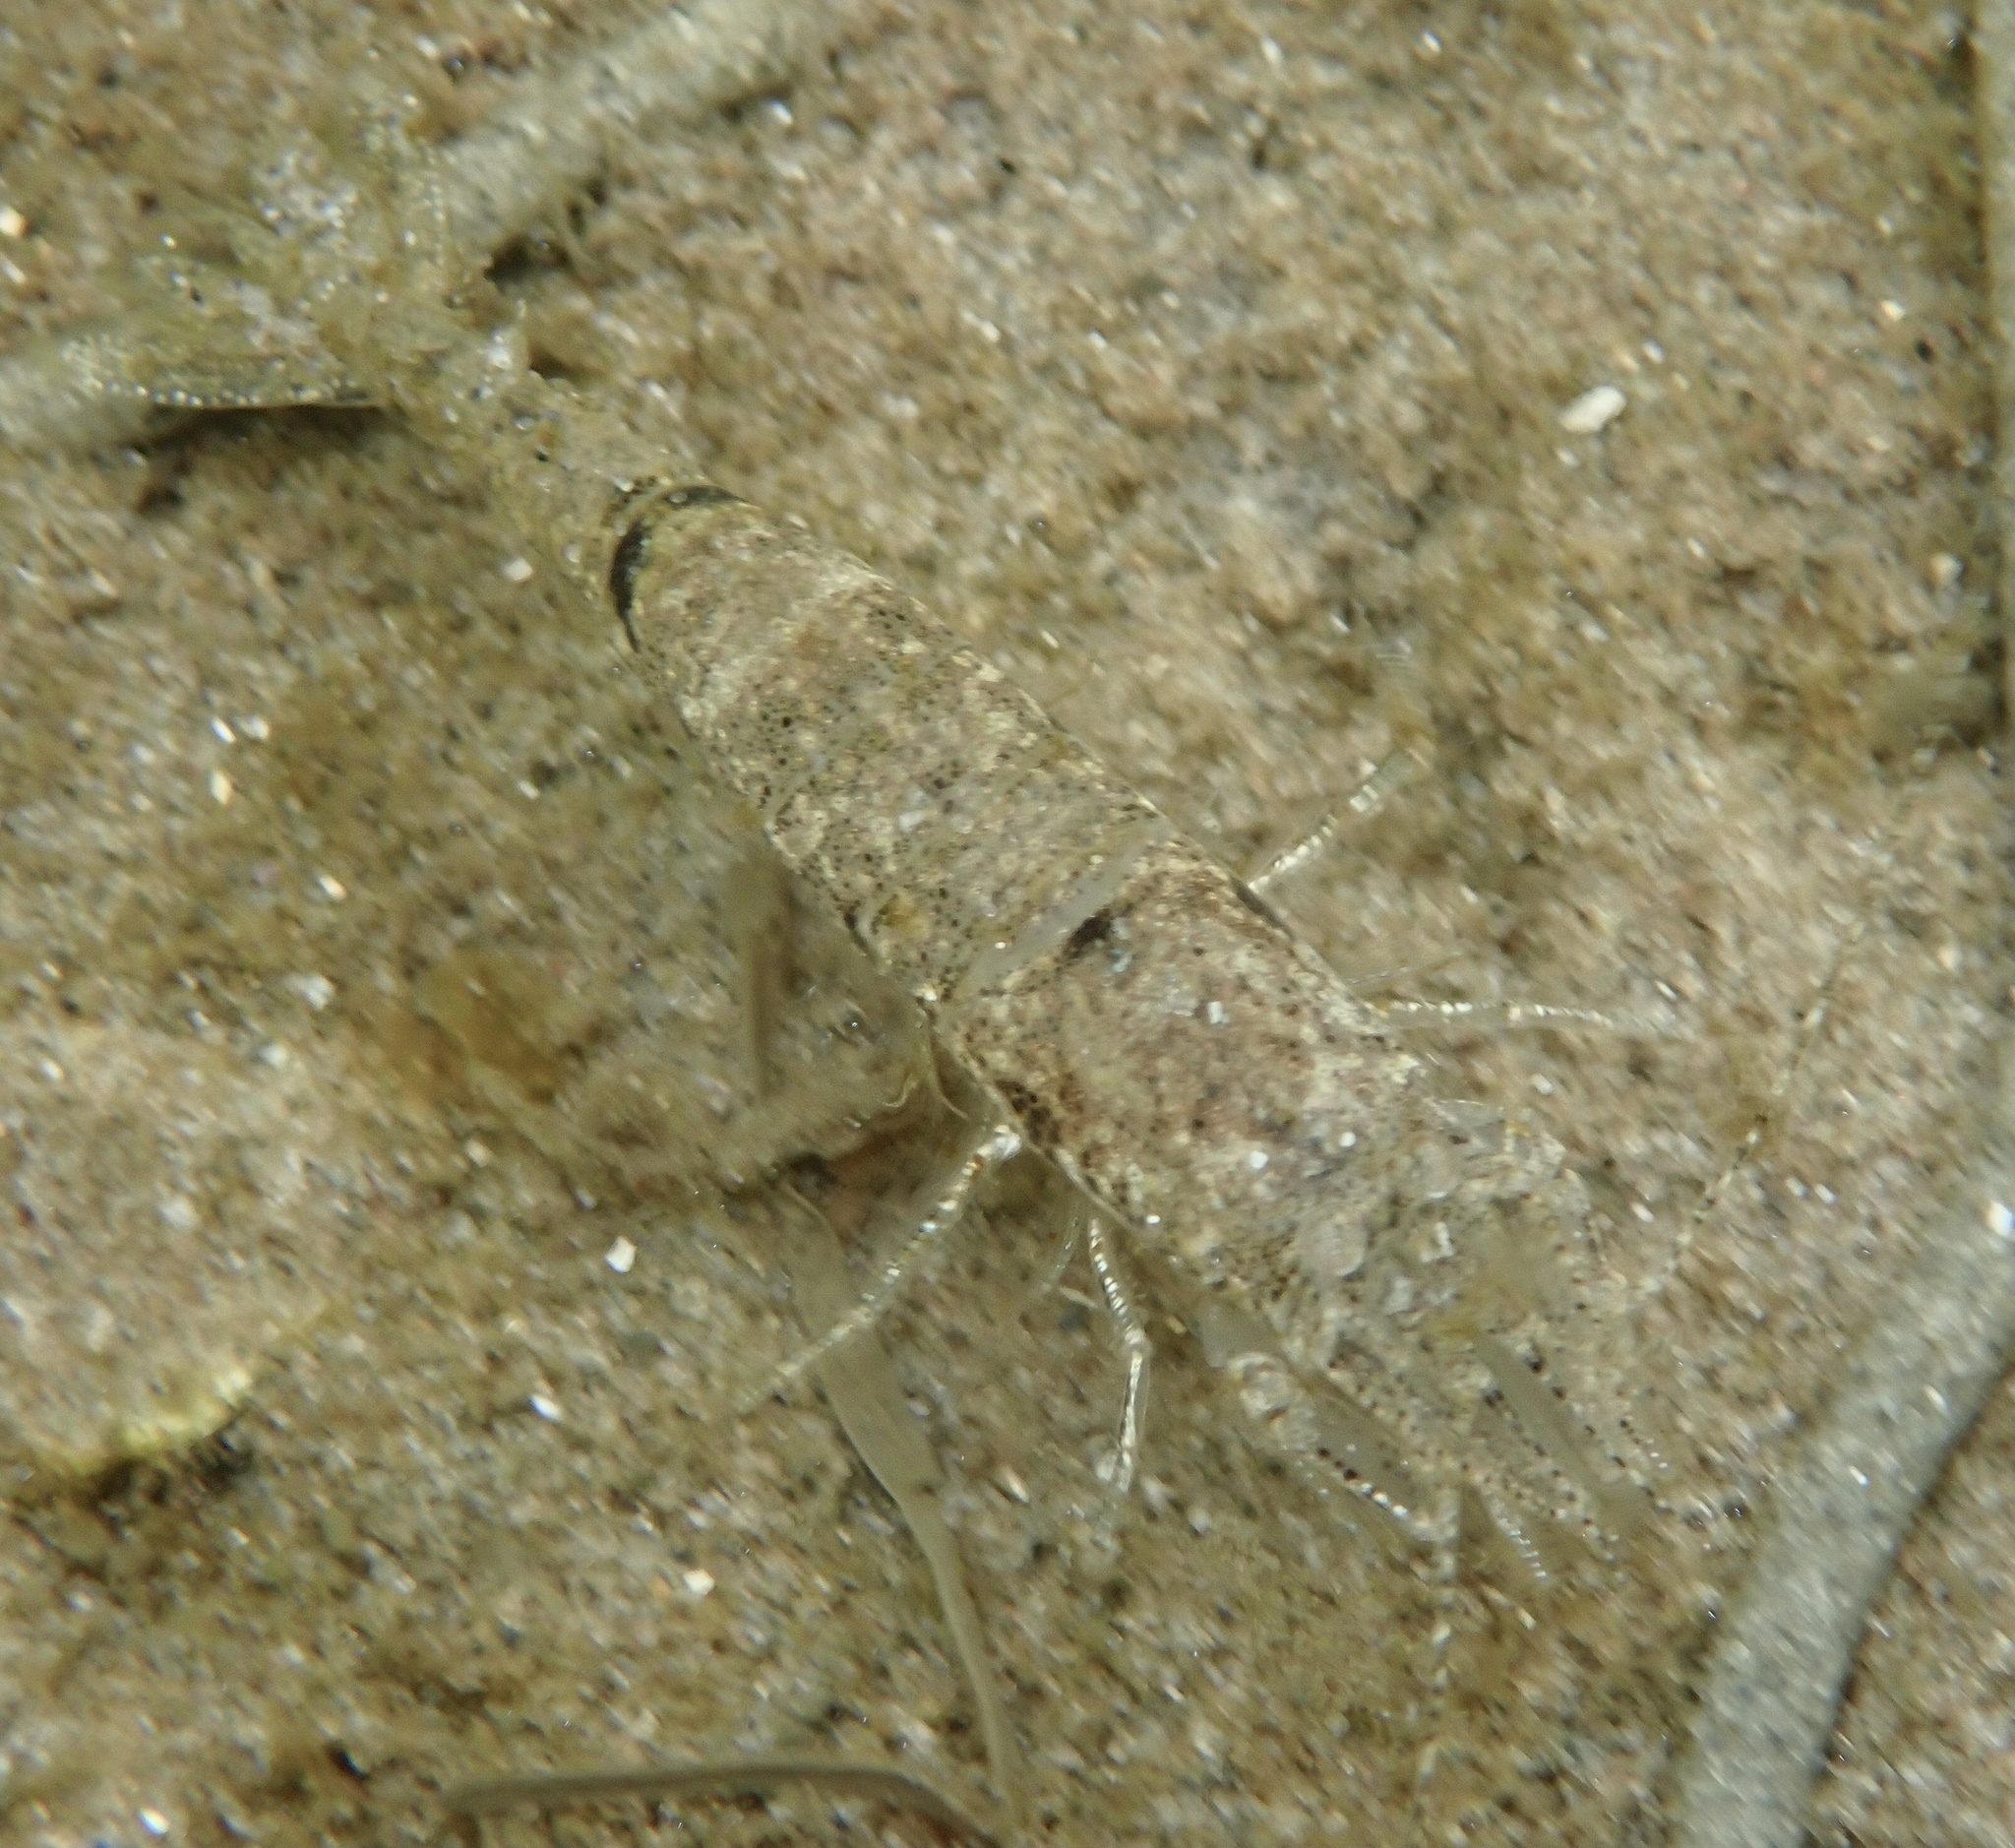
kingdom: Animalia
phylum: Arthropoda
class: Malacostraca
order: Decapoda
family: Crangonidae
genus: Crangon
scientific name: Crangon crangon
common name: Brown shrimp
